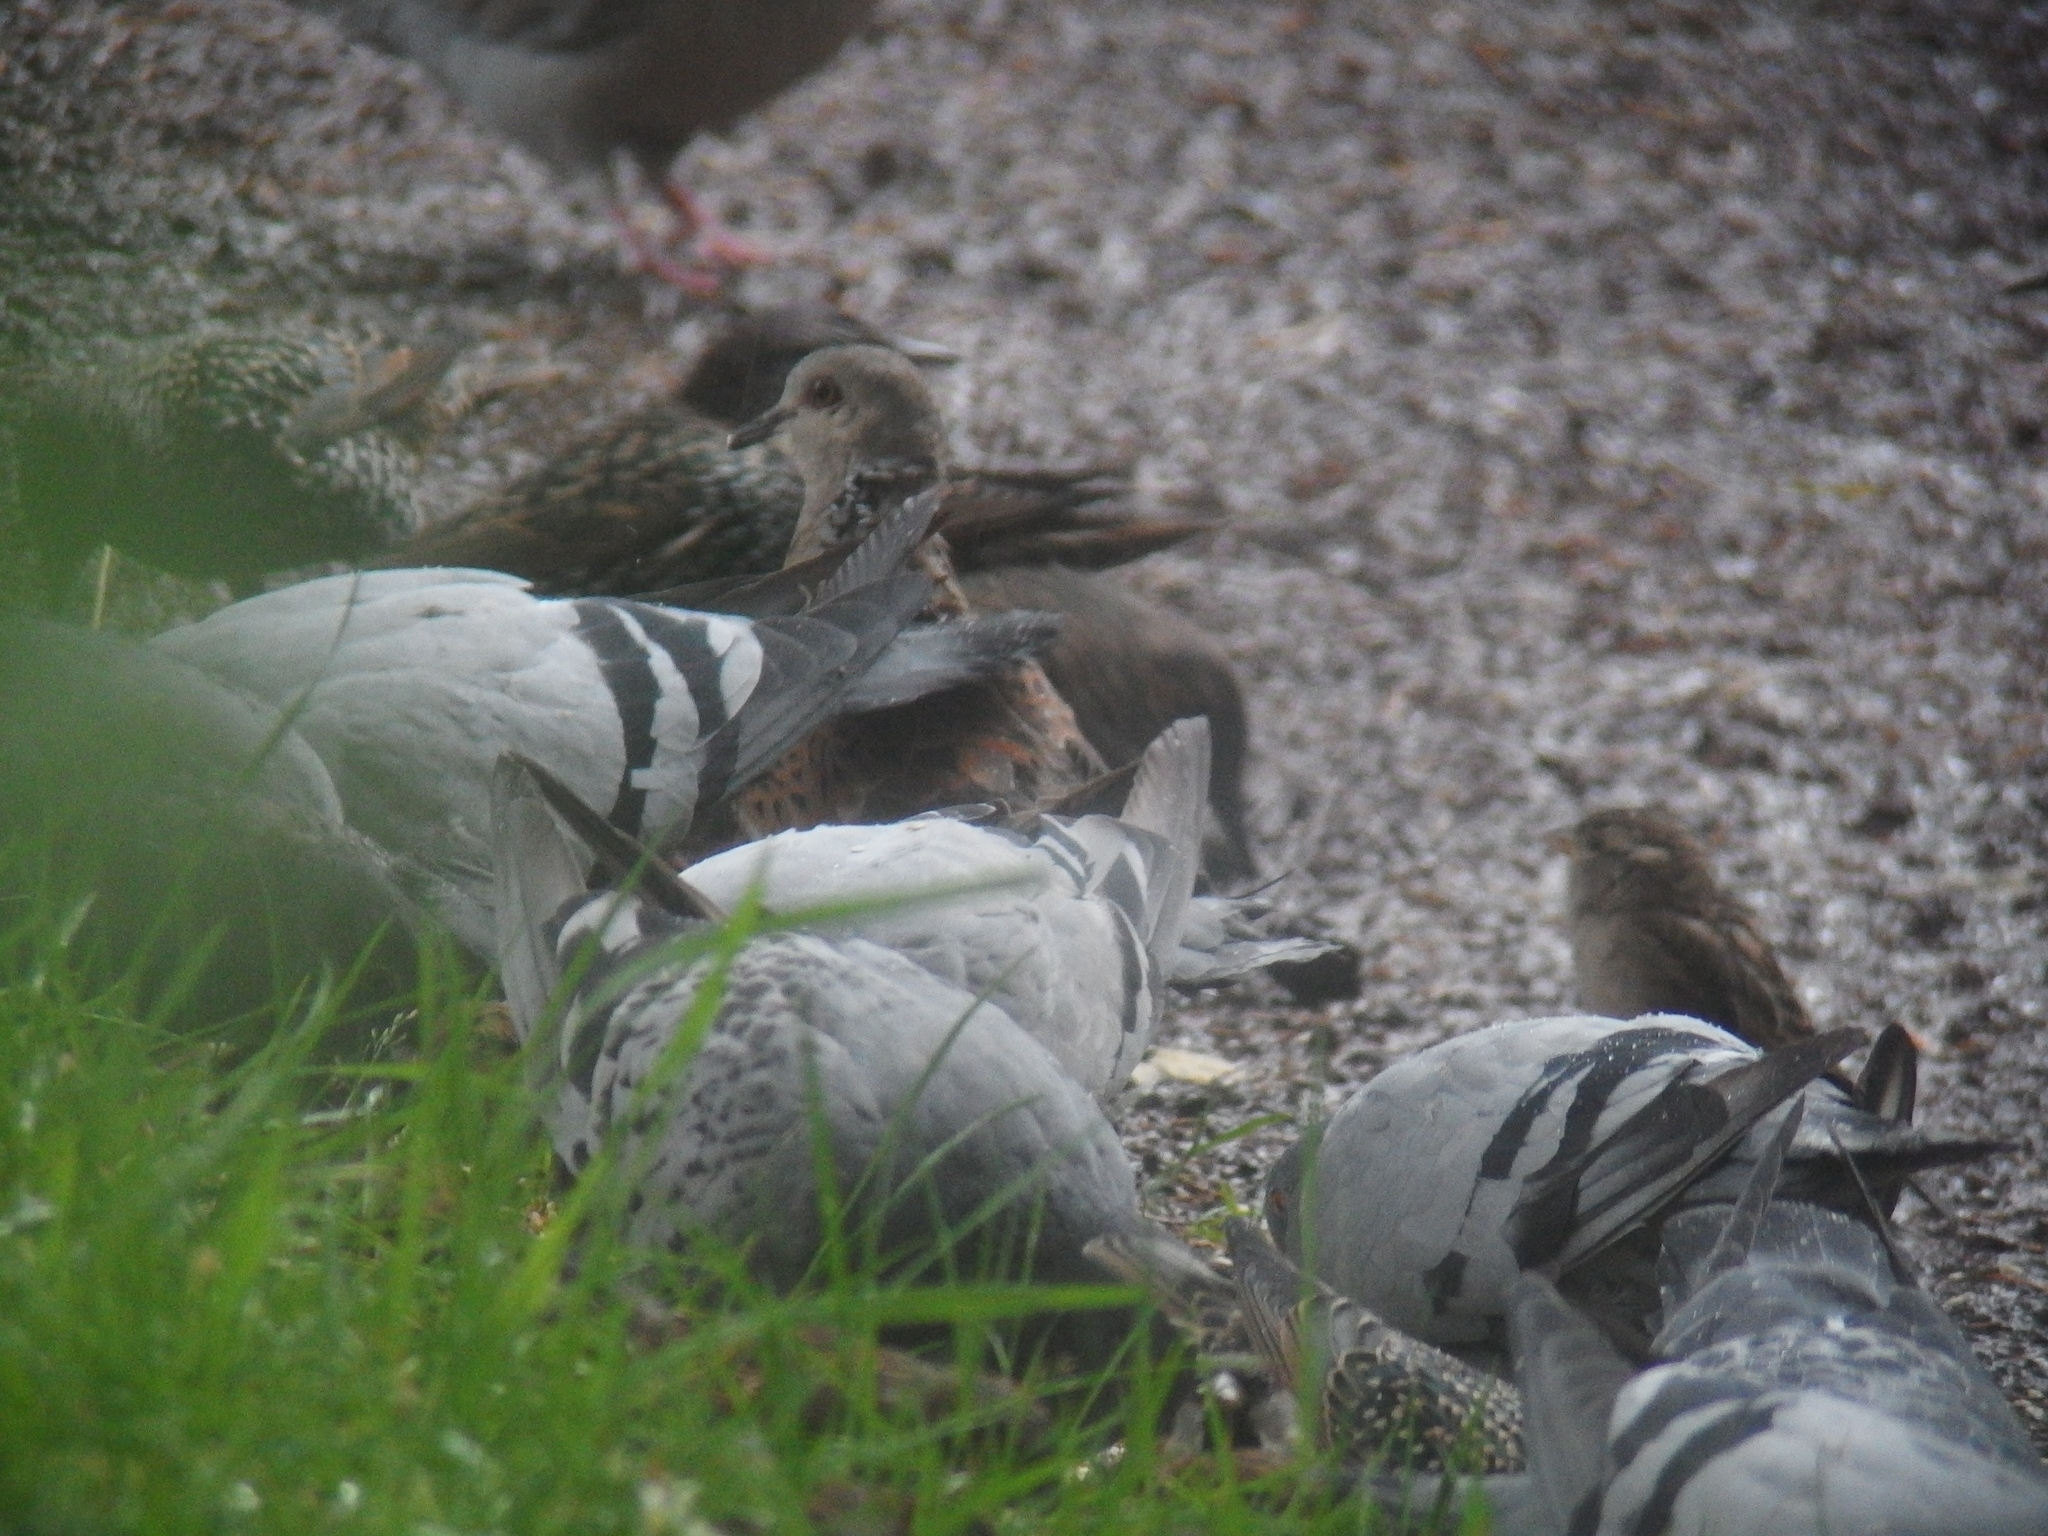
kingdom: Animalia
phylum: Chordata
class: Aves
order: Columbiformes
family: Columbidae
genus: Columba
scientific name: Columba livia
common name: Rock pigeon
